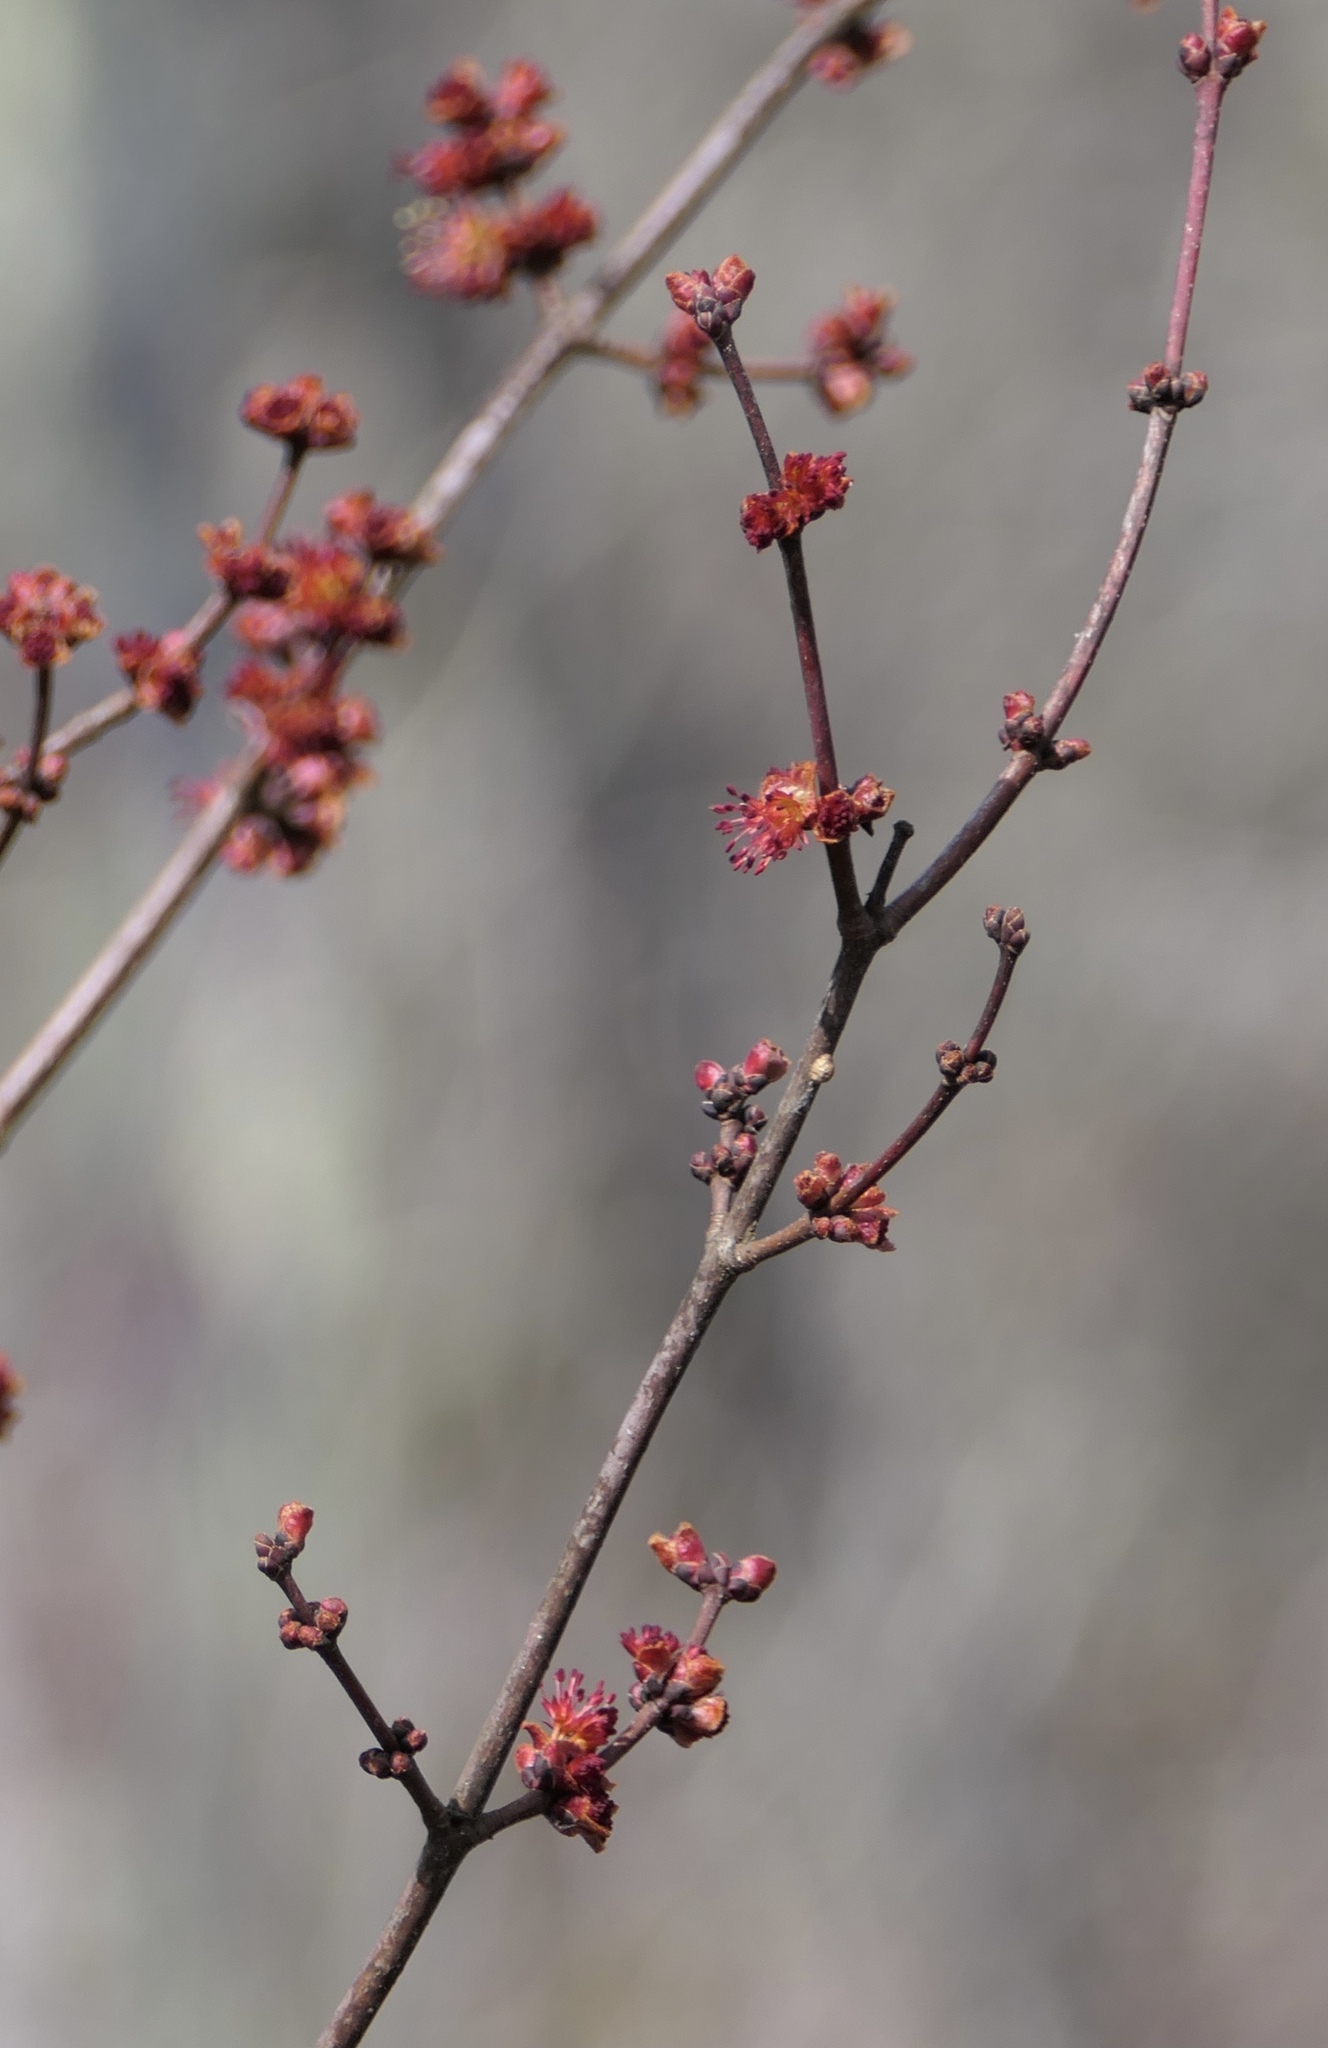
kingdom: Plantae
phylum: Tracheophyta
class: Magnoliopsida
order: Sapindales
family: Sapindaceae
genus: Acer
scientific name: Acer rubrum
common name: Red maple
